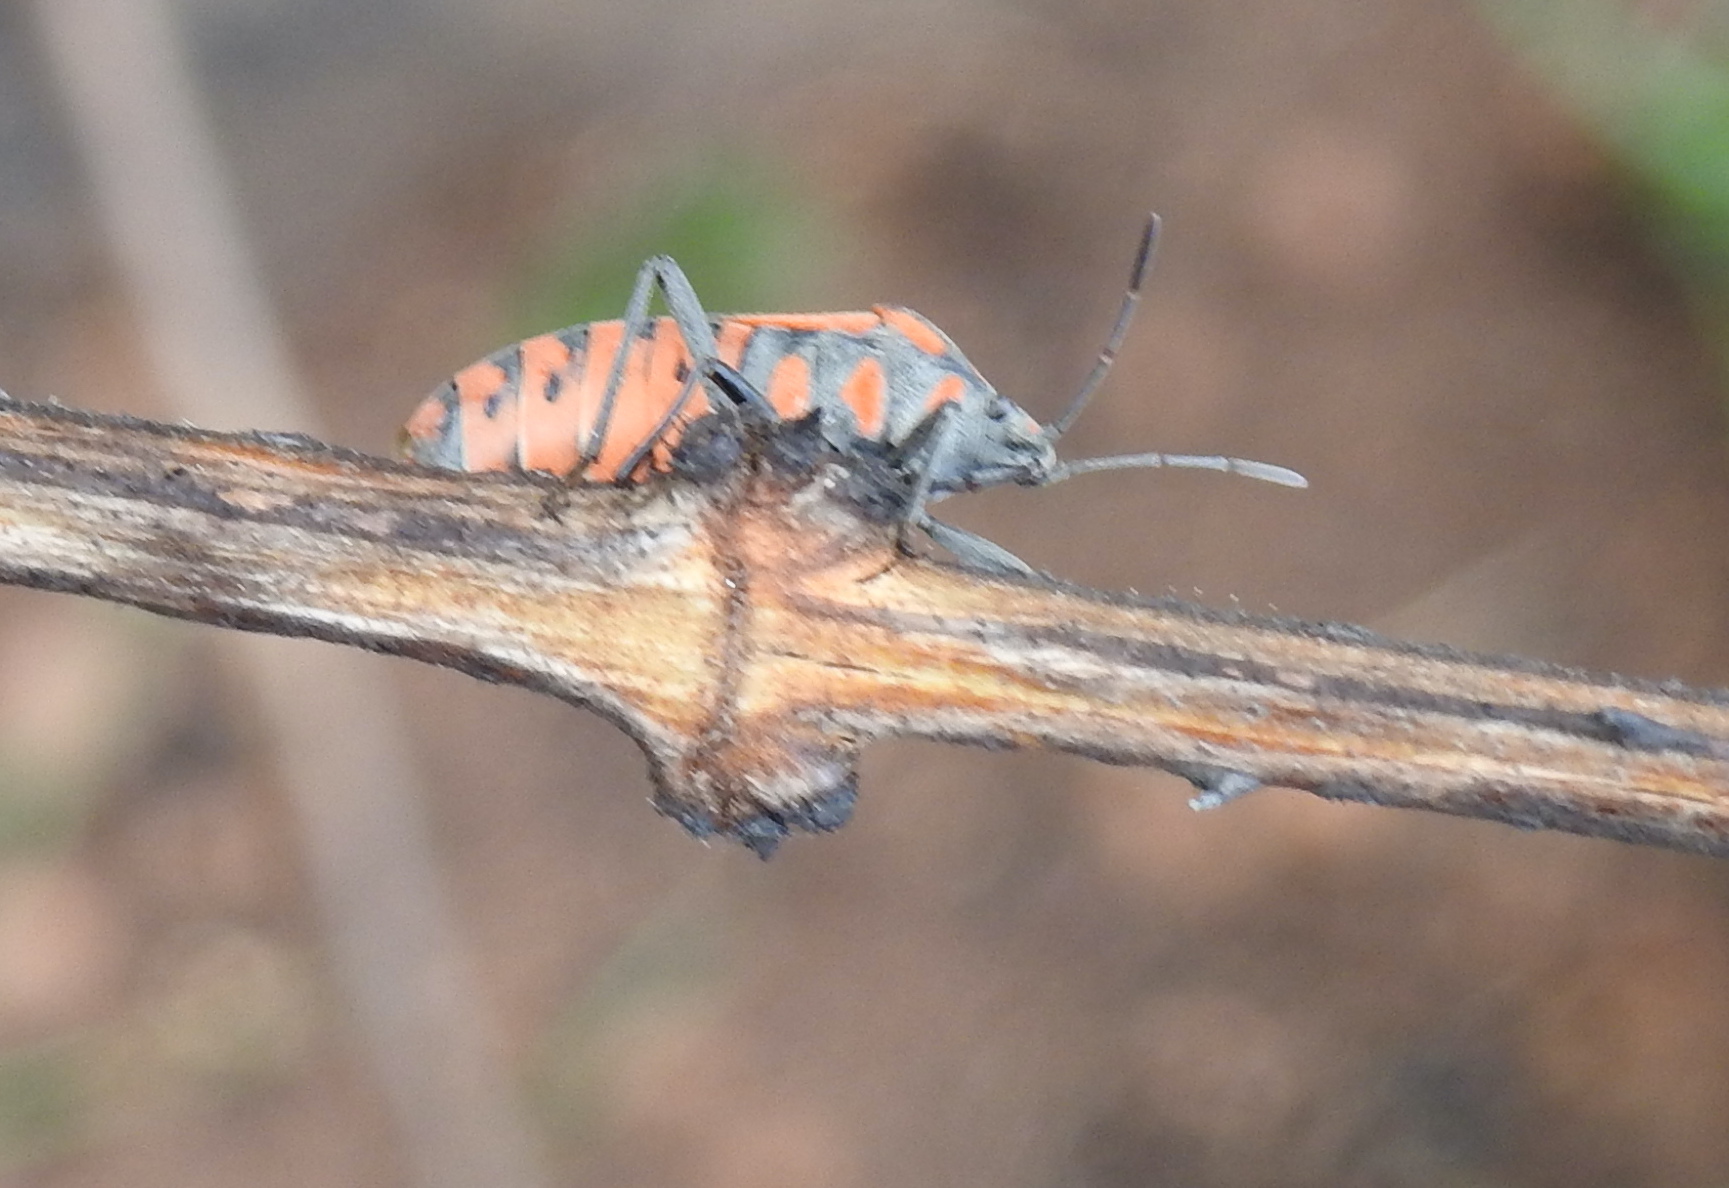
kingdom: Animalia
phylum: Arthropoda
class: Insecta
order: Hemiptera
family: Lygaeidae
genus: Spilostethus
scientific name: Spilostethus rivularis
